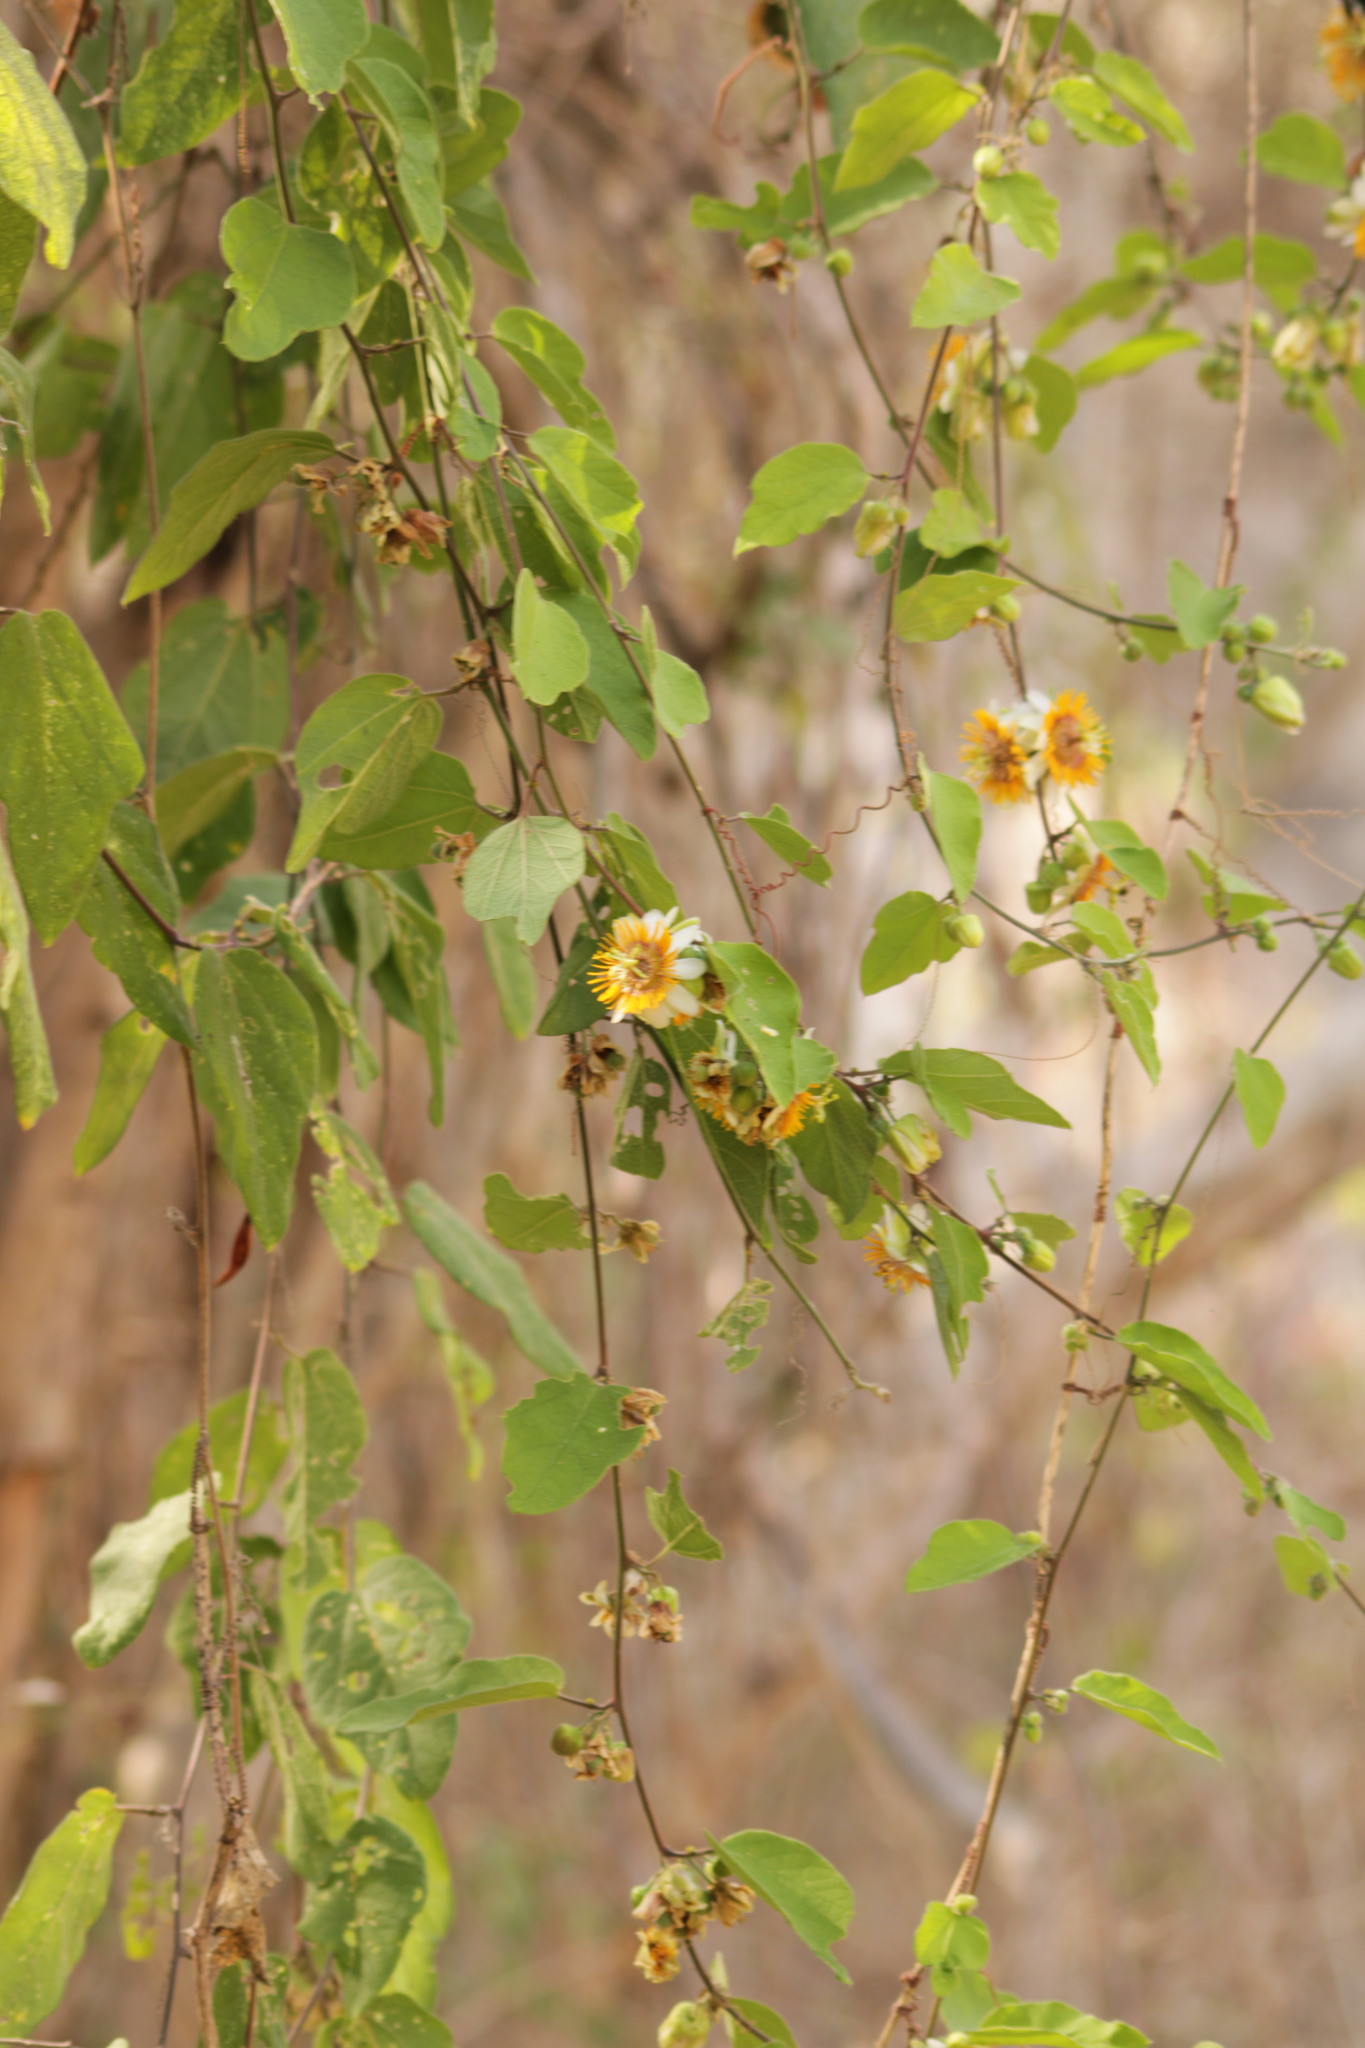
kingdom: Plantae
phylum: Tracheophyta
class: Magnoliopsida
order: Malpighiales
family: Passifloraceae
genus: Passiflora
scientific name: Passiflora holosericea
